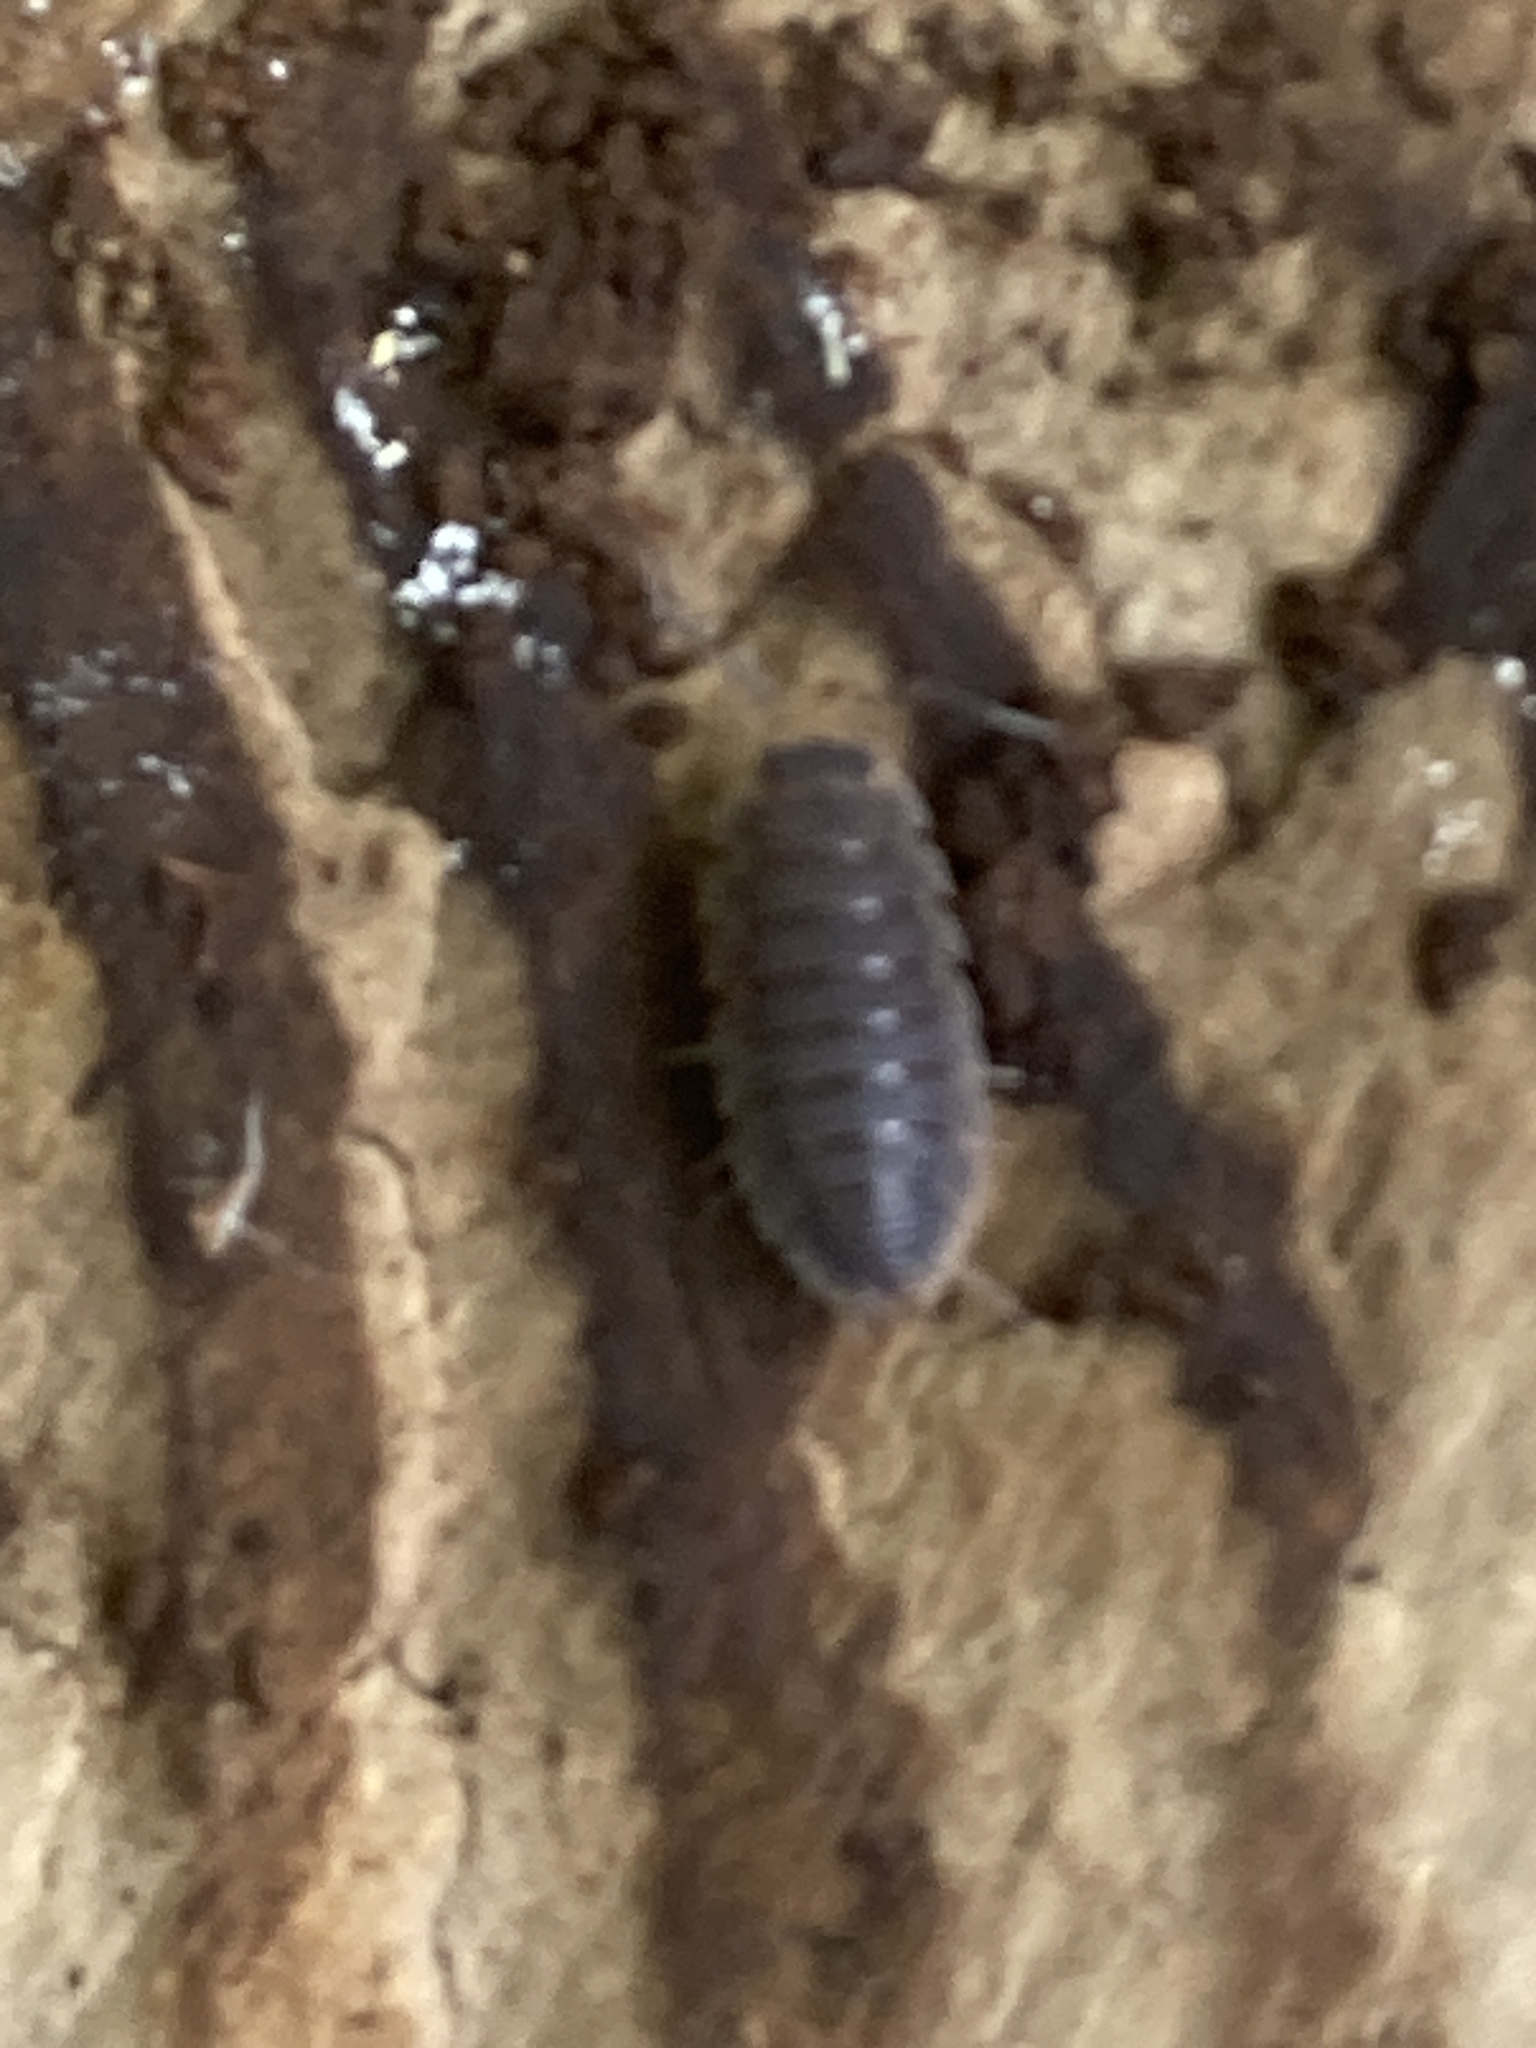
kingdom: Animalia
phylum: Arthropoda
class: Malacostraca
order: Isopoda
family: Porcellionidae
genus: Porcellio
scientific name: Porcellio scaber
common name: Common rough woodlouse
